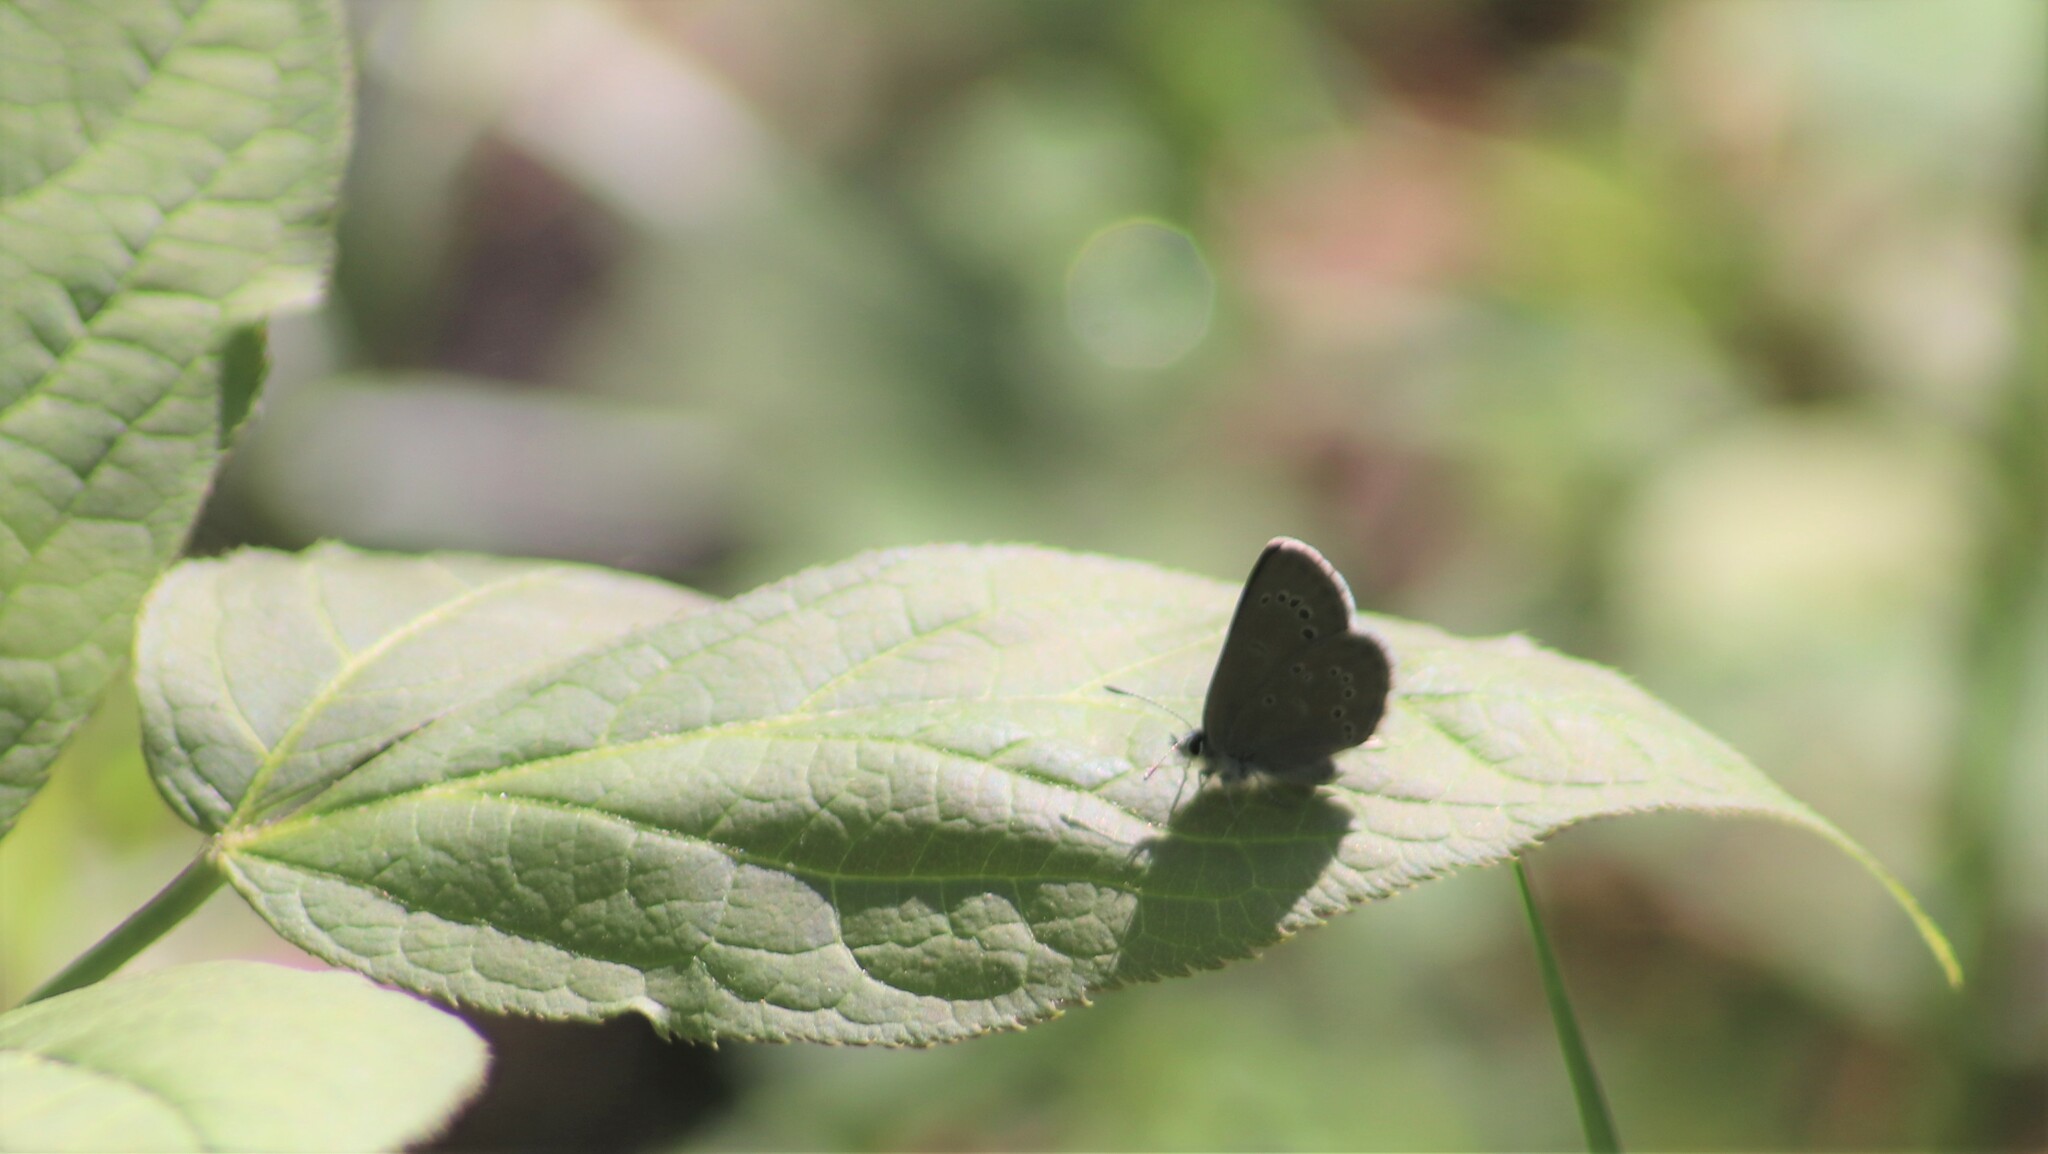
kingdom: Animalia
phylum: Arthropoda
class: Insecta
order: Lepidoptera
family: Lycaenidae
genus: Glaucopsyche
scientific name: Glaucopsyche lygdamus
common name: Silvery blue
